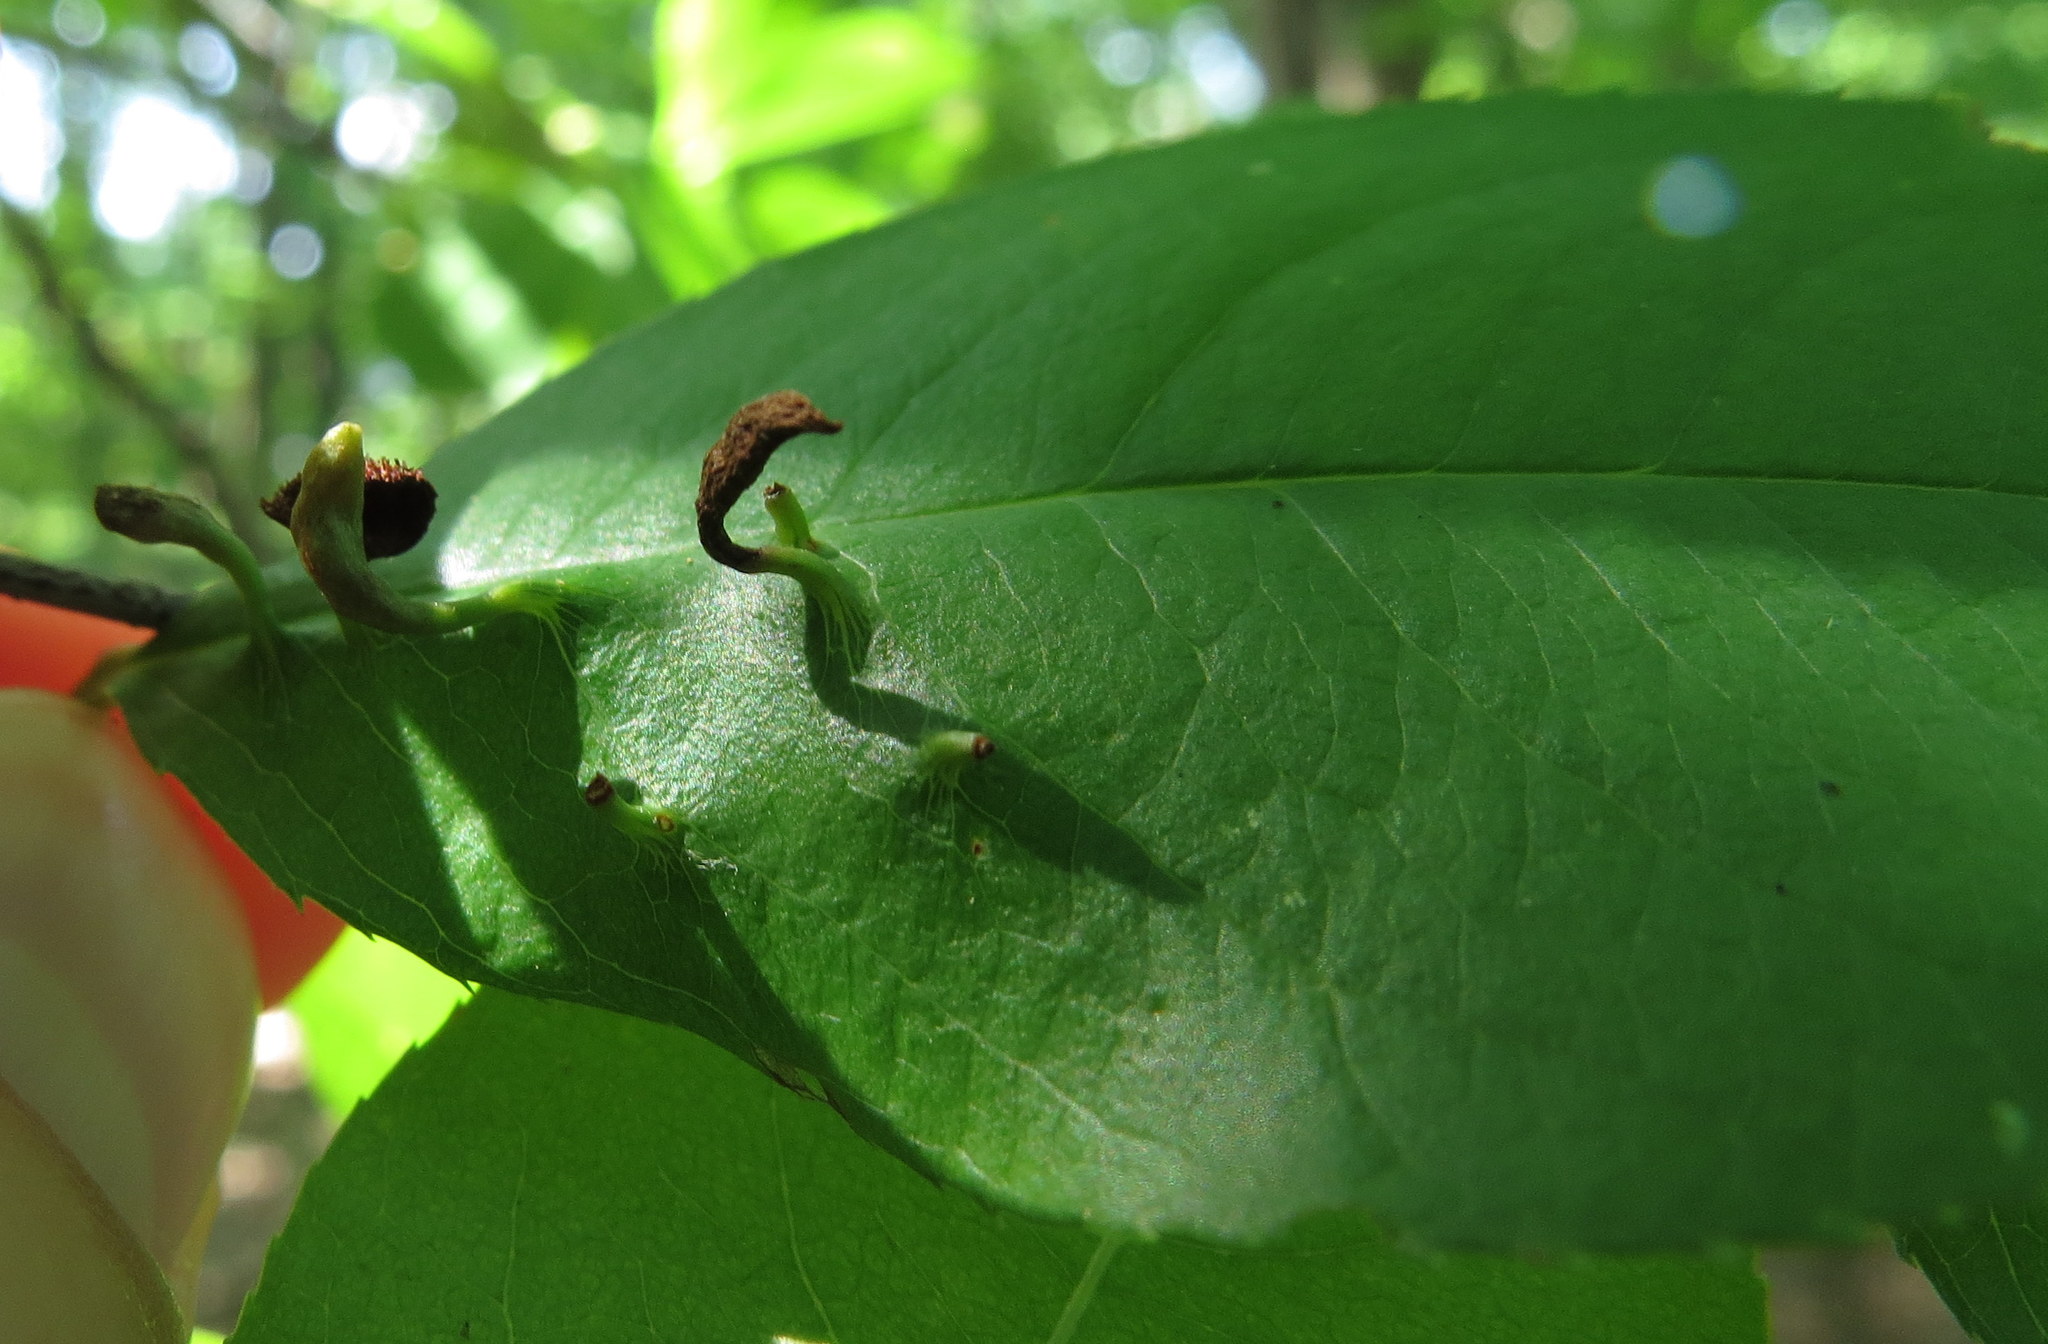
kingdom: Animalia
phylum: Arthropoda
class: Arachnida
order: Trombidiformes
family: Eriophyidae
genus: Eriophyes
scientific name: Eriophyes
